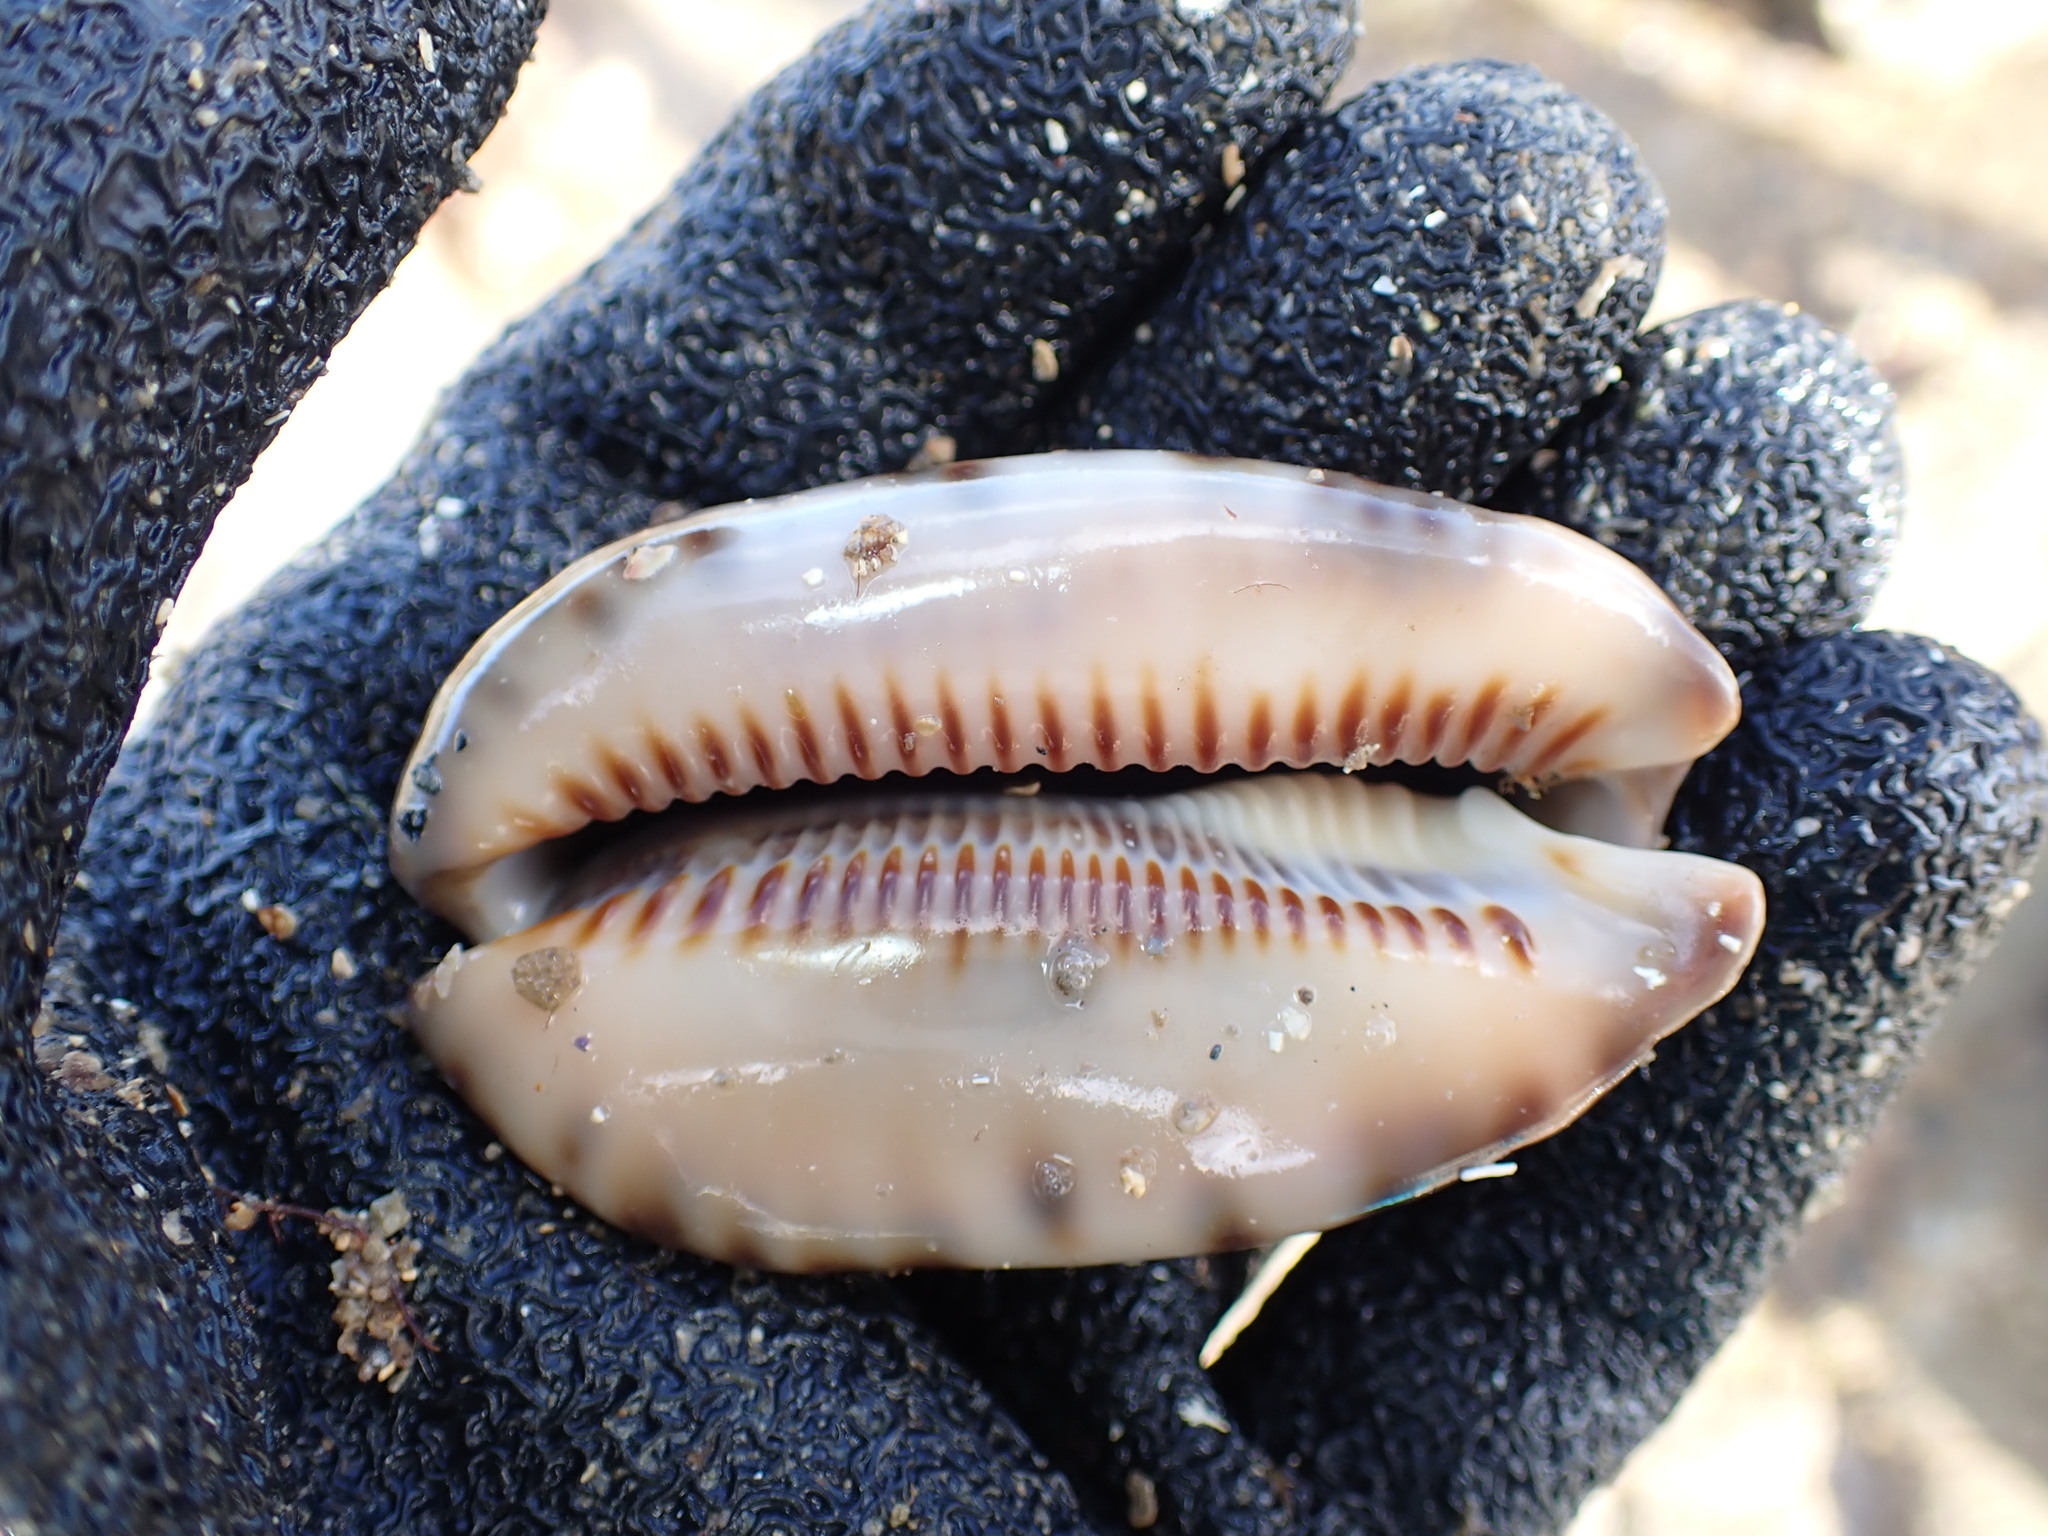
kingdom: Animalia
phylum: Mollusca
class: Gastropoda
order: Littorinimorpha
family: Cypraeidae
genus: Mauritia
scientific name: Mauritia arabica
